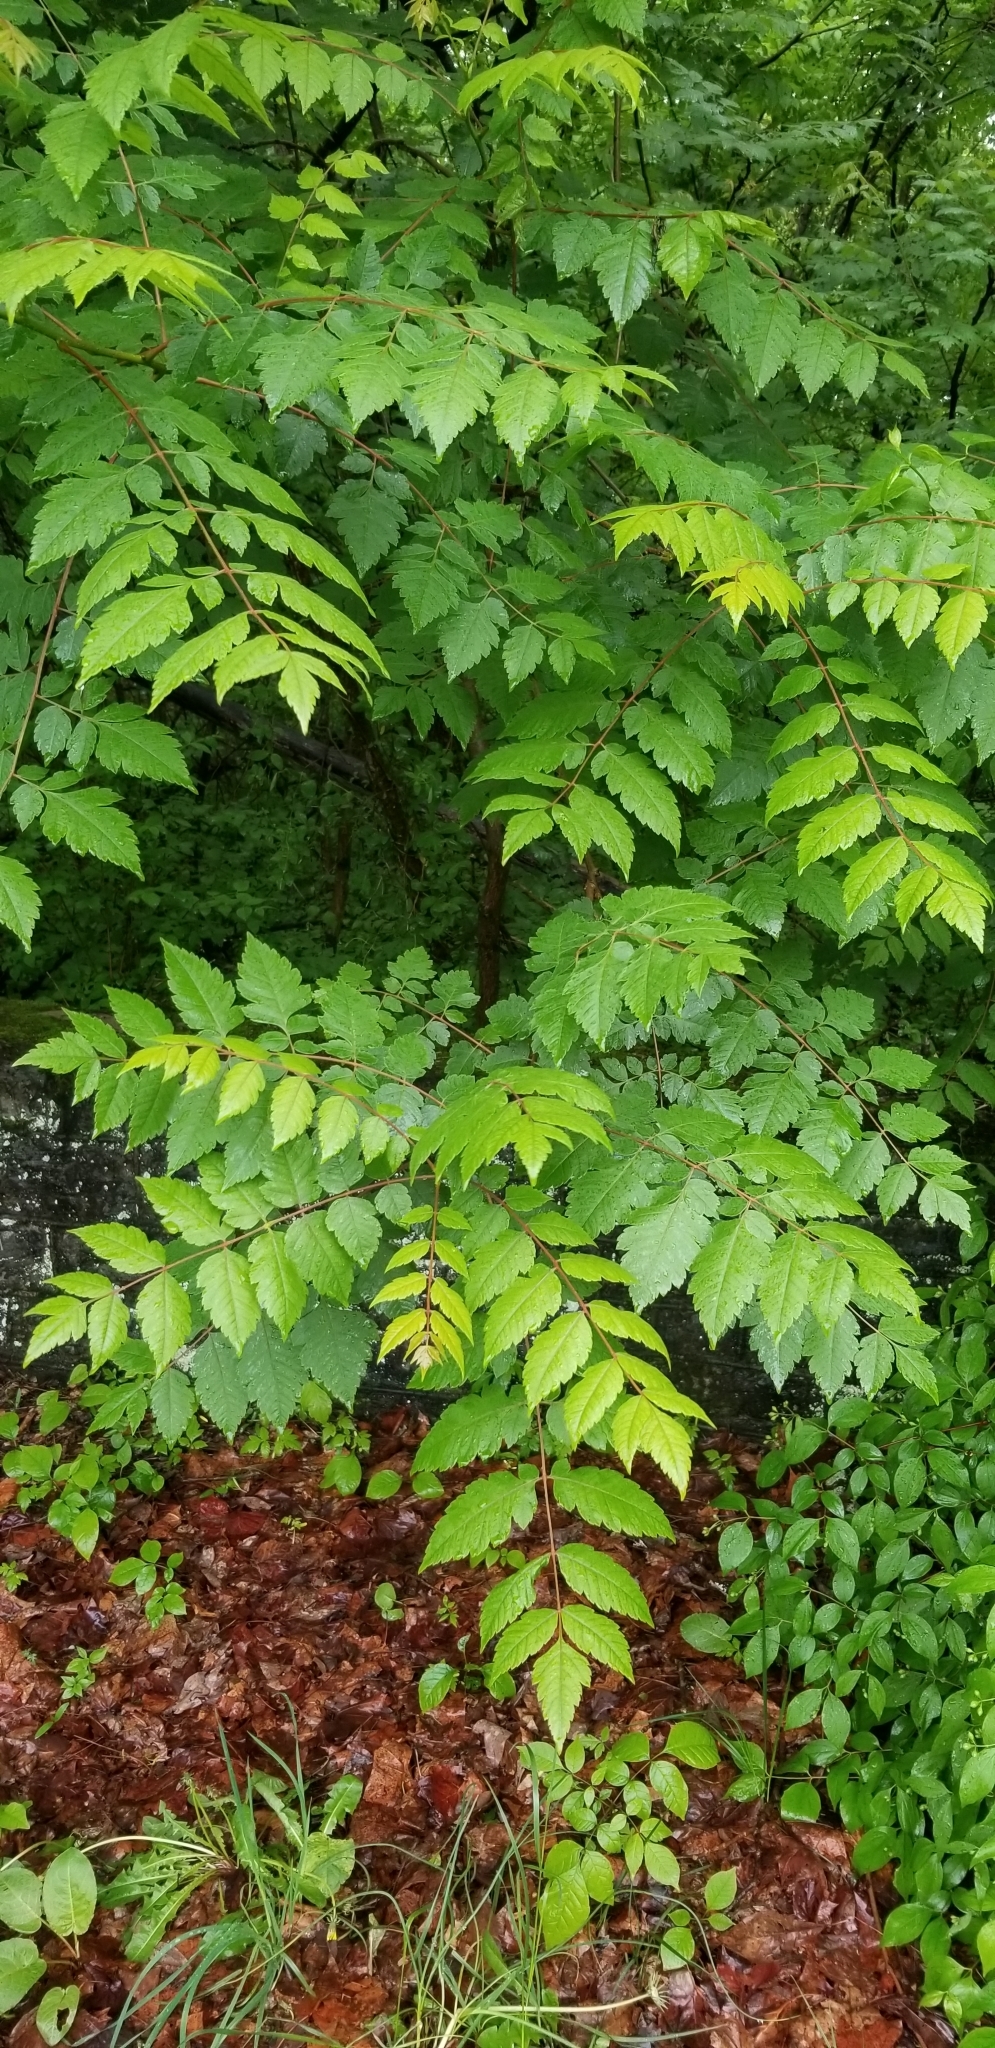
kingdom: Plantae
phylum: Tracheophyta
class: Magnoliopsida
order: Sapindales
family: Sapindaceae
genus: Koelreuteria
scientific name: Koelreuteria paniculata
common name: Pride-of-india
